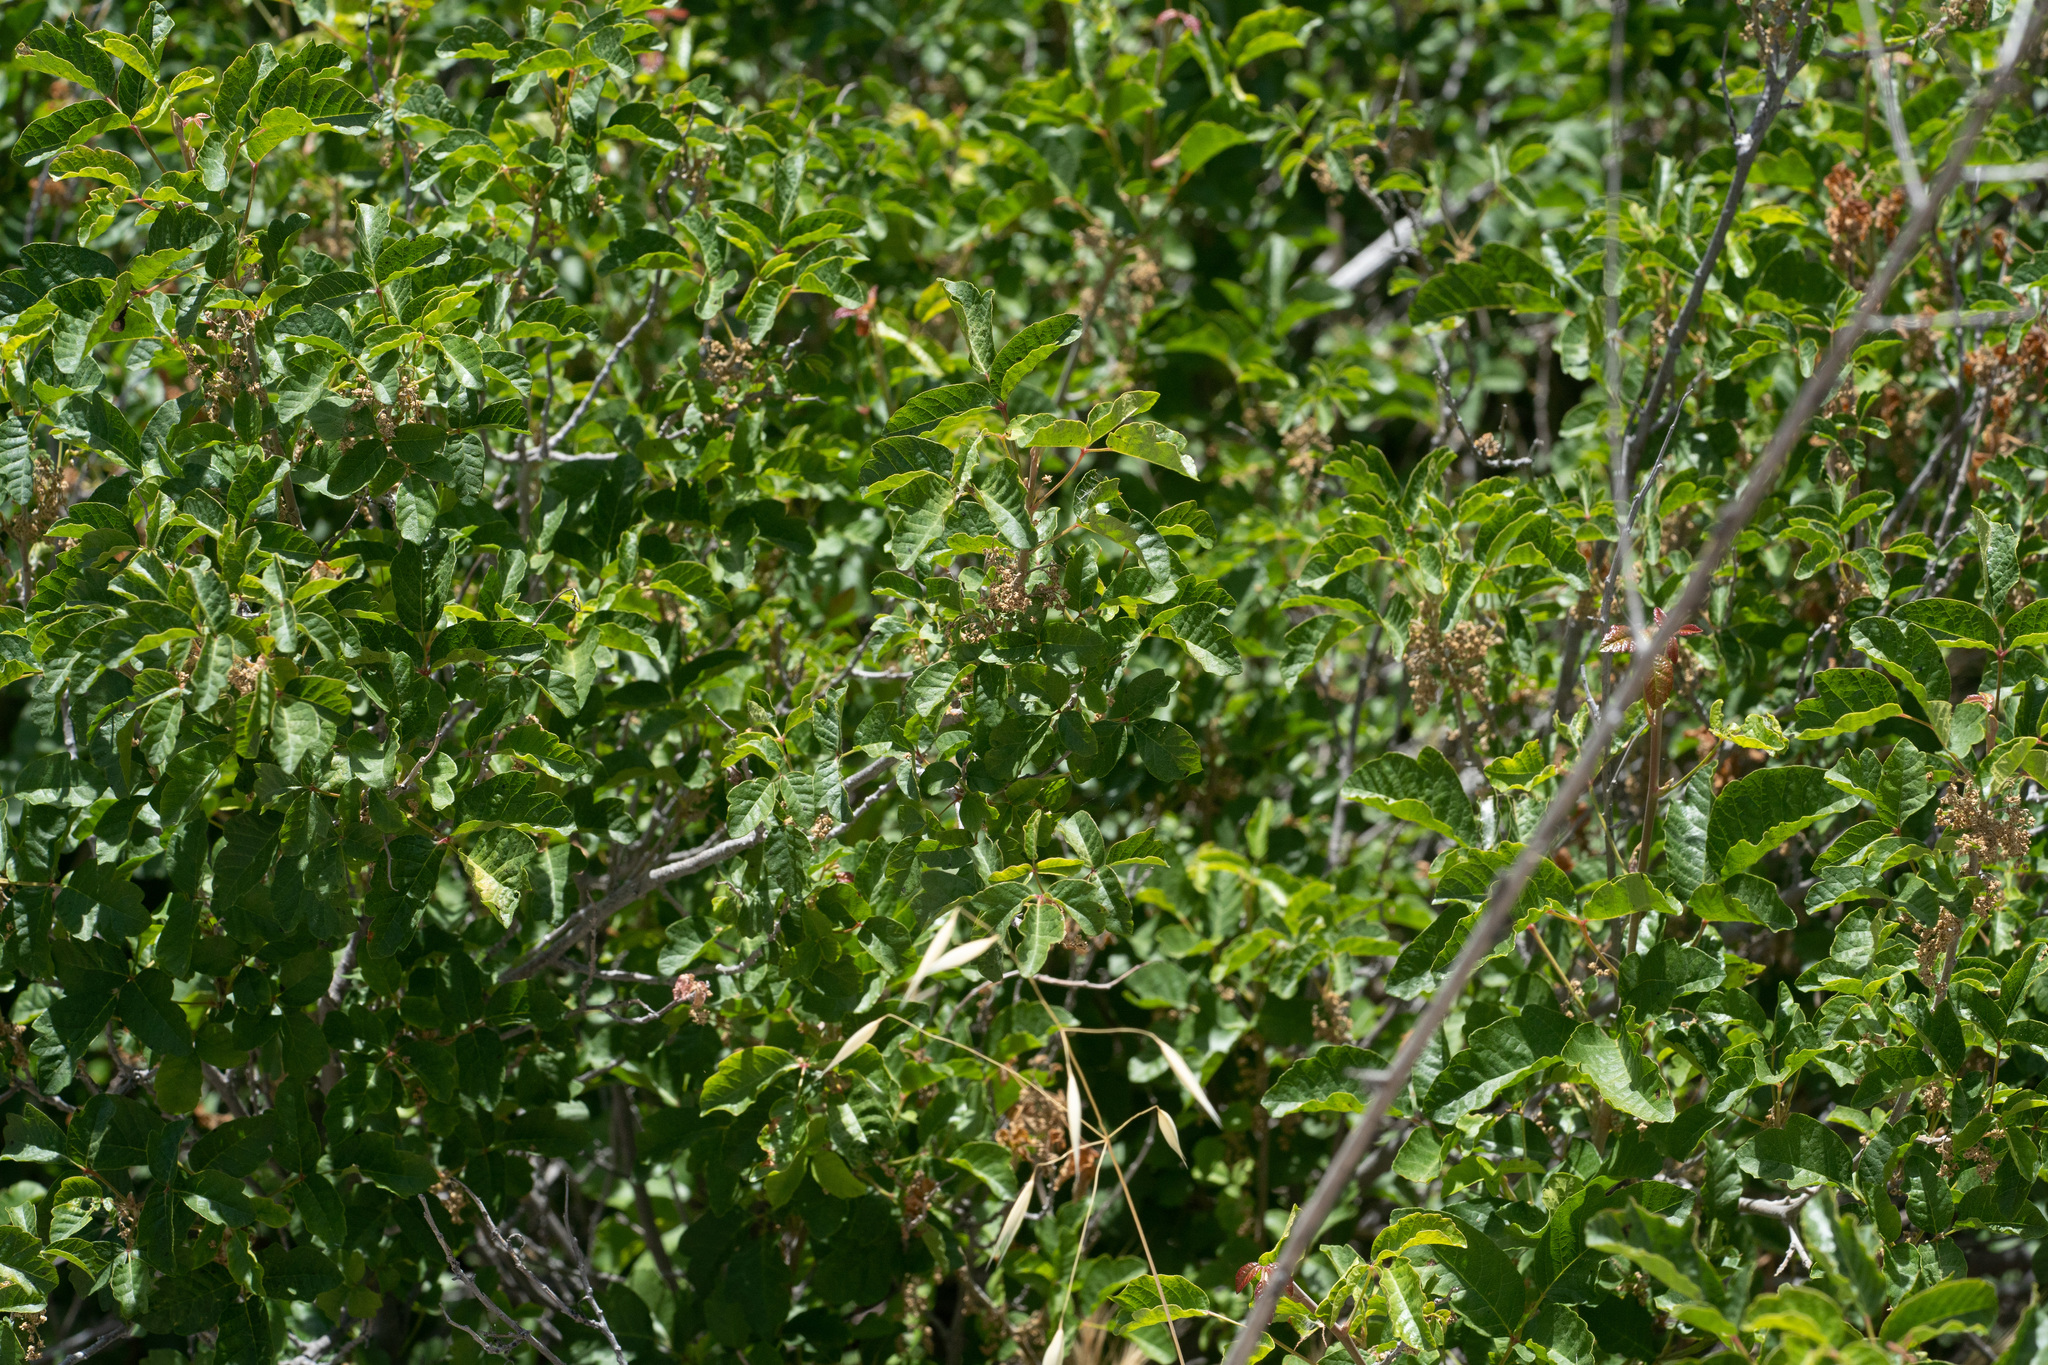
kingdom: Plantae
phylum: Tracheophyta
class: Magnoliopsida
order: Sapindales
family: Anacardiaceae
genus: Toxicodendron
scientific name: Toxicodendron diversilobum
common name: Pacific poison-oak
